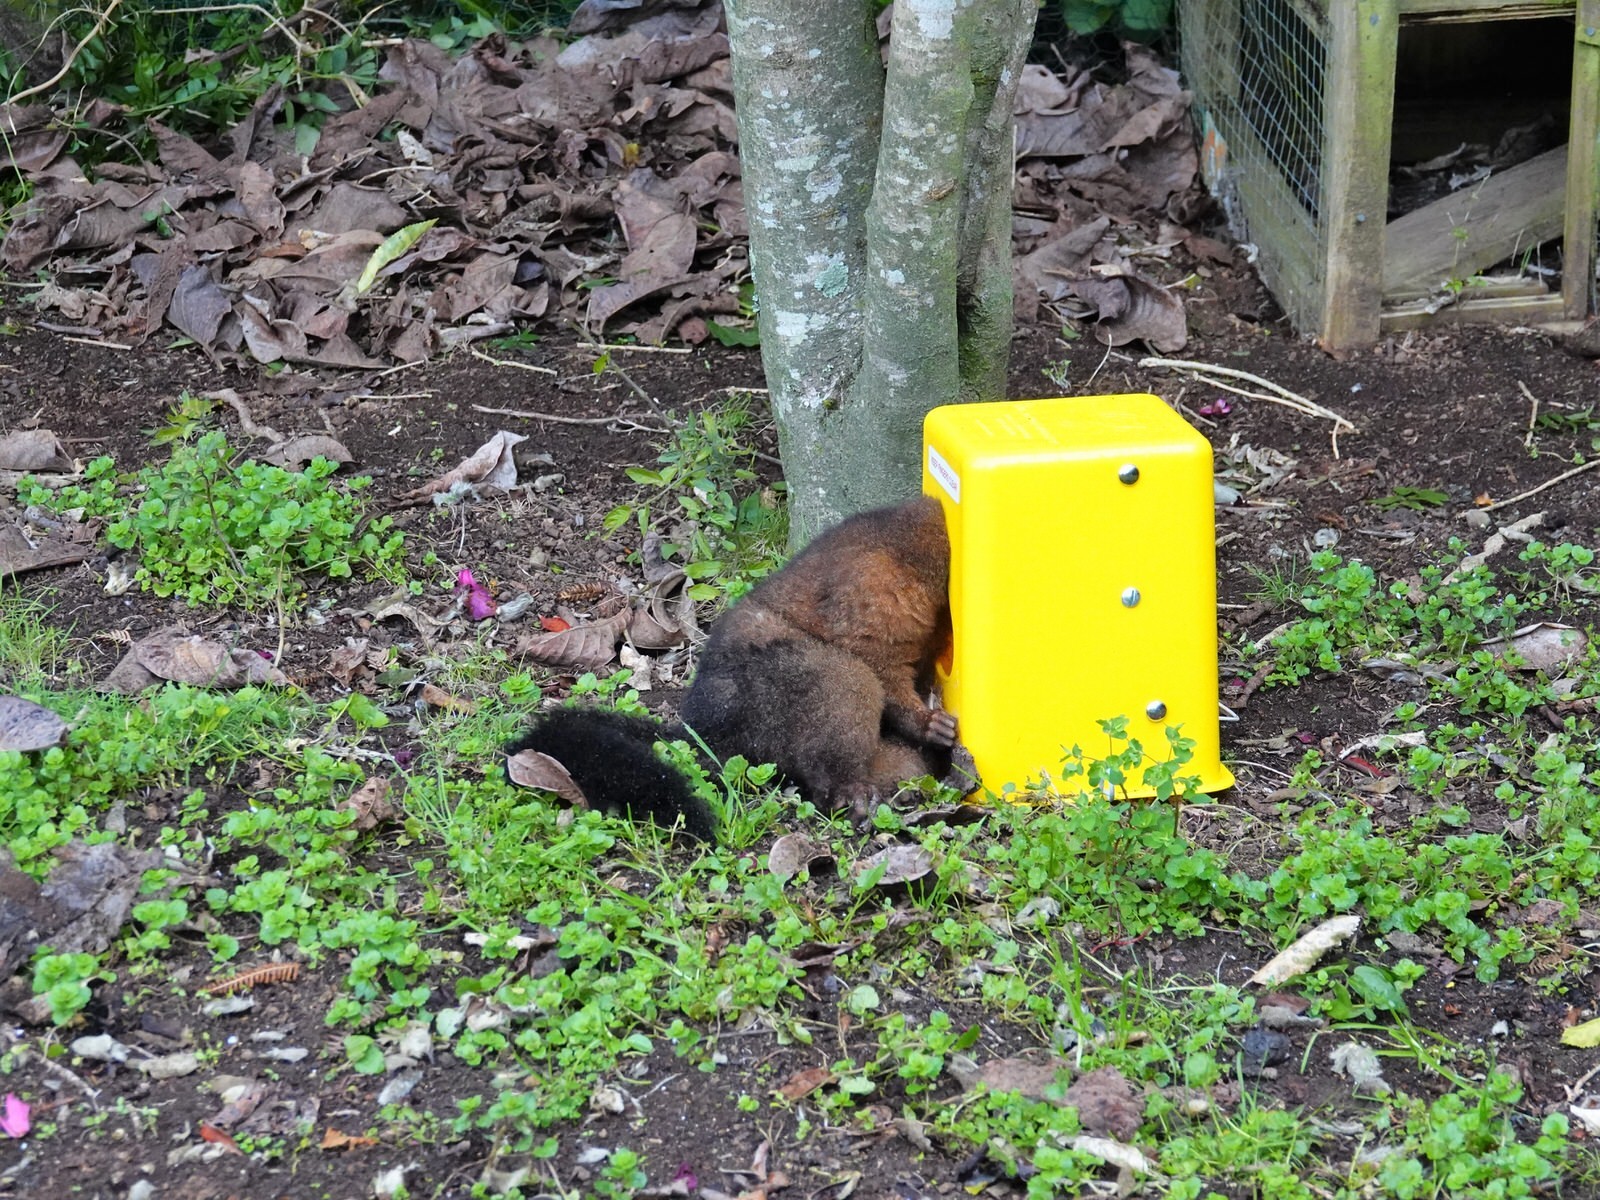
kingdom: Animalia
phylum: Chordata
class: Mammalia
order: Diprotodontia
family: Phalangeridae
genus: Trichosurus
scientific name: Trichosurus vulpecula
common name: Common brushtail
